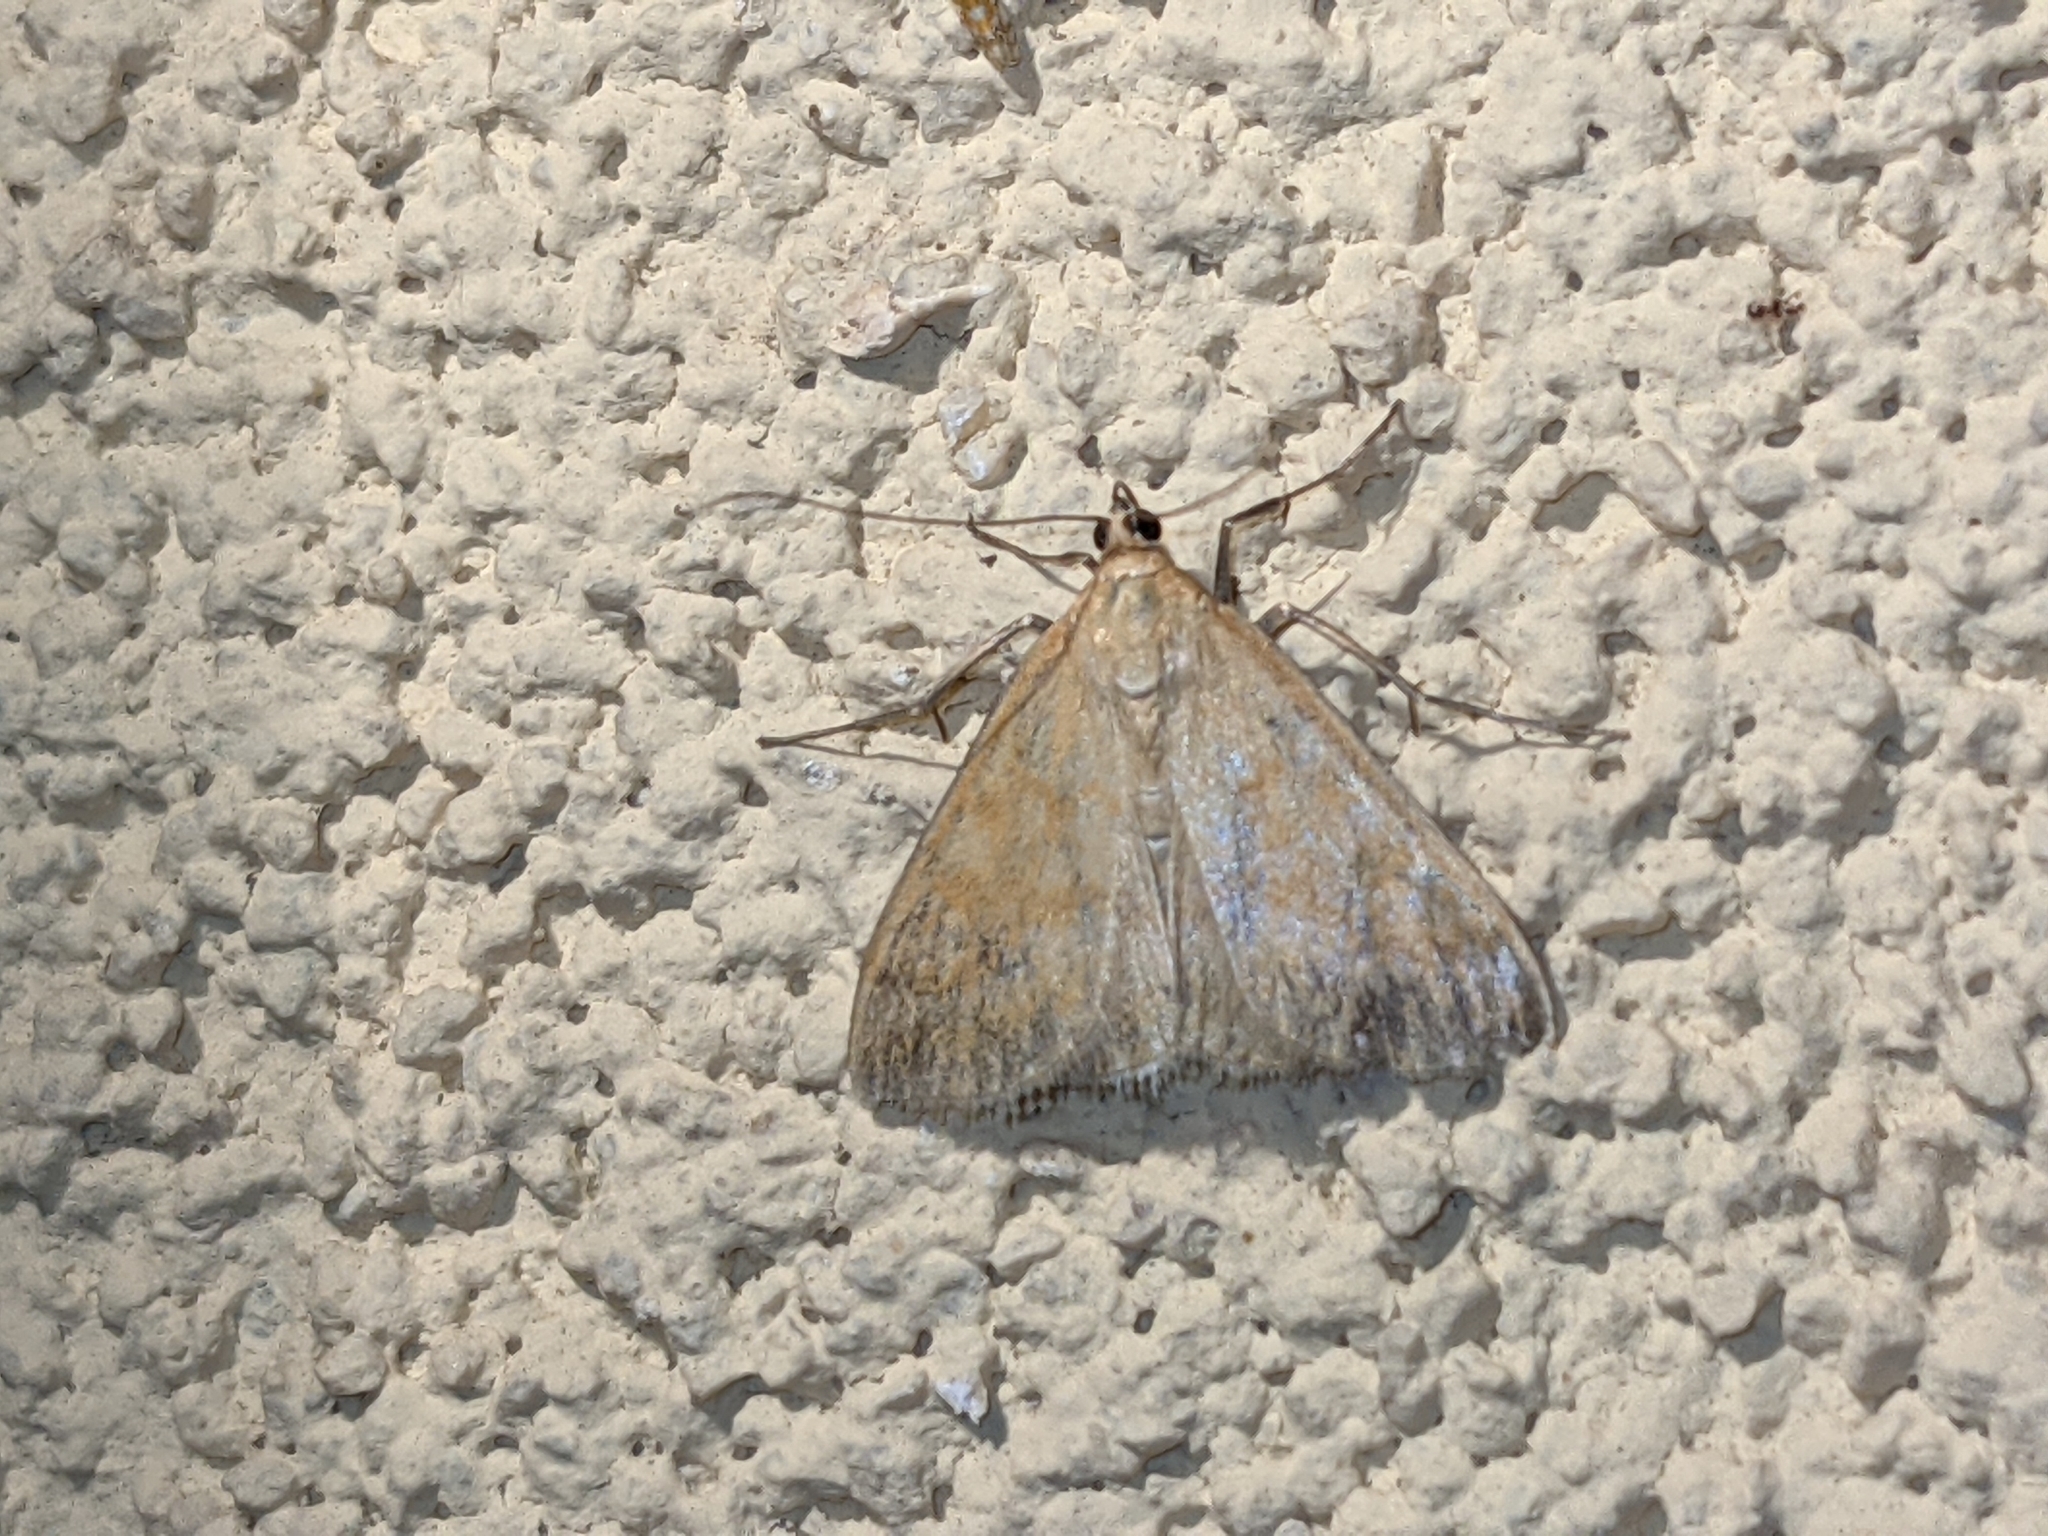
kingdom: Animalia
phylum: Arthropoda
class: Insecta
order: Lepidoptera
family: Crambidae
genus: Sitochroa
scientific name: Sitochroa verticalis
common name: Lesser pearl
